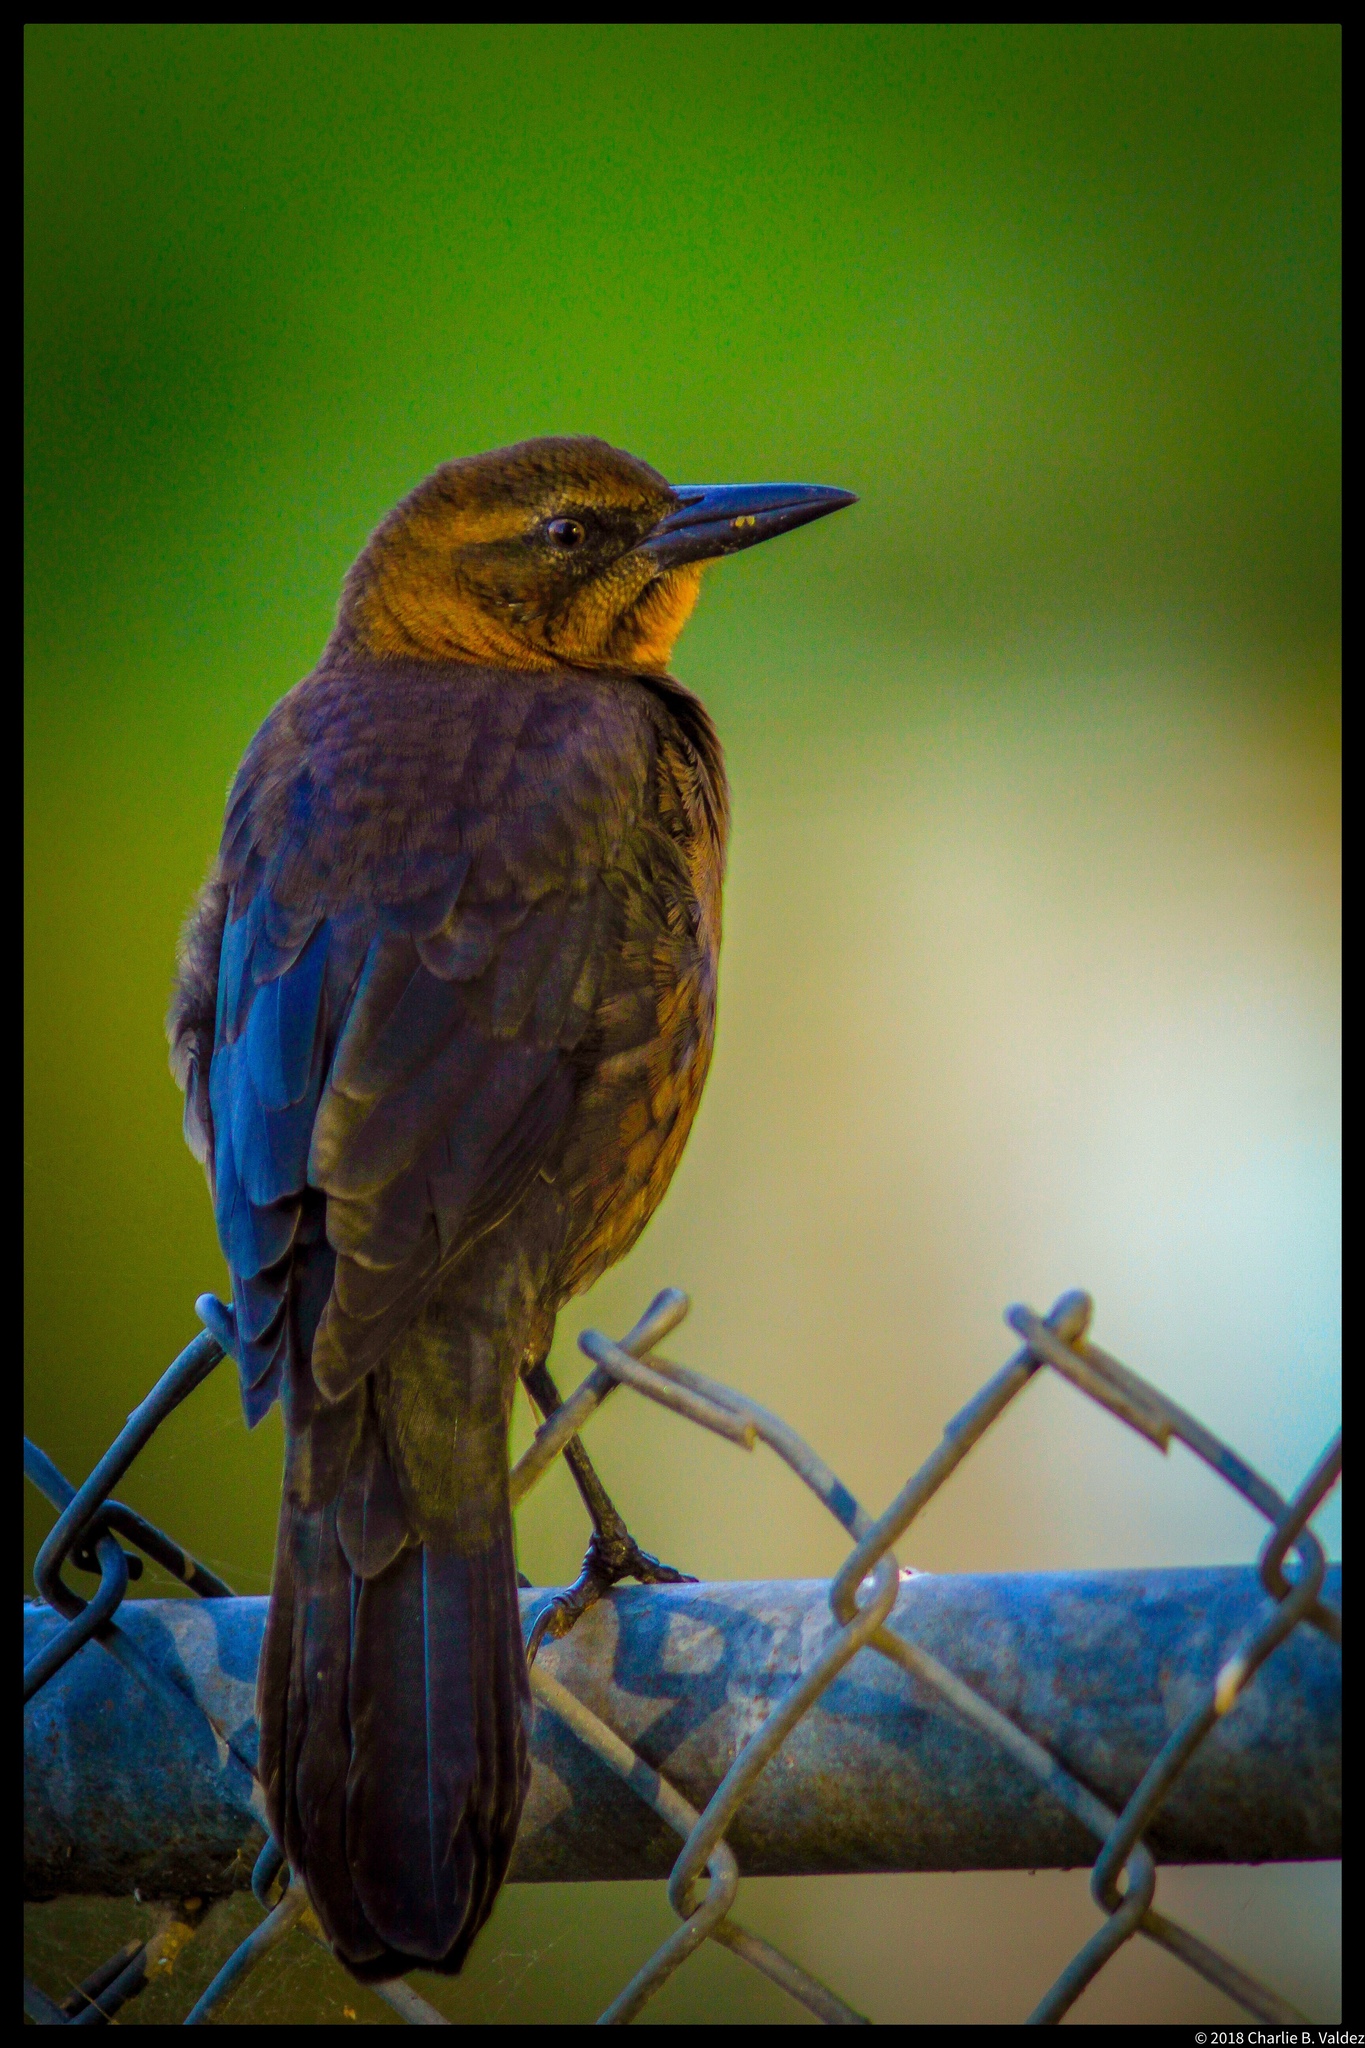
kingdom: Animalia
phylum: Chordata
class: Aves
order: Passeriformes
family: Icteridae
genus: Quiscalus
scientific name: Quiscalus mexicanus
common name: Great-tailed grackle
